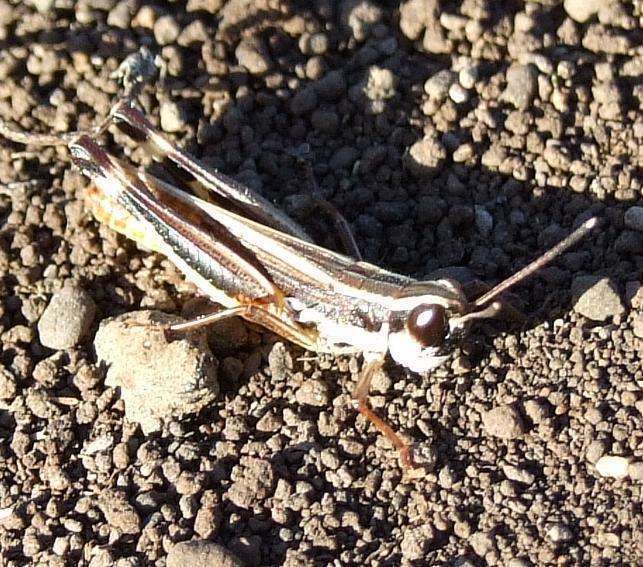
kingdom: Animalia
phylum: Arthropoda
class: Insecta
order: Orthoptera
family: Acrididae
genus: Macrotona
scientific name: Macrotona australis
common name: Common macrotona
